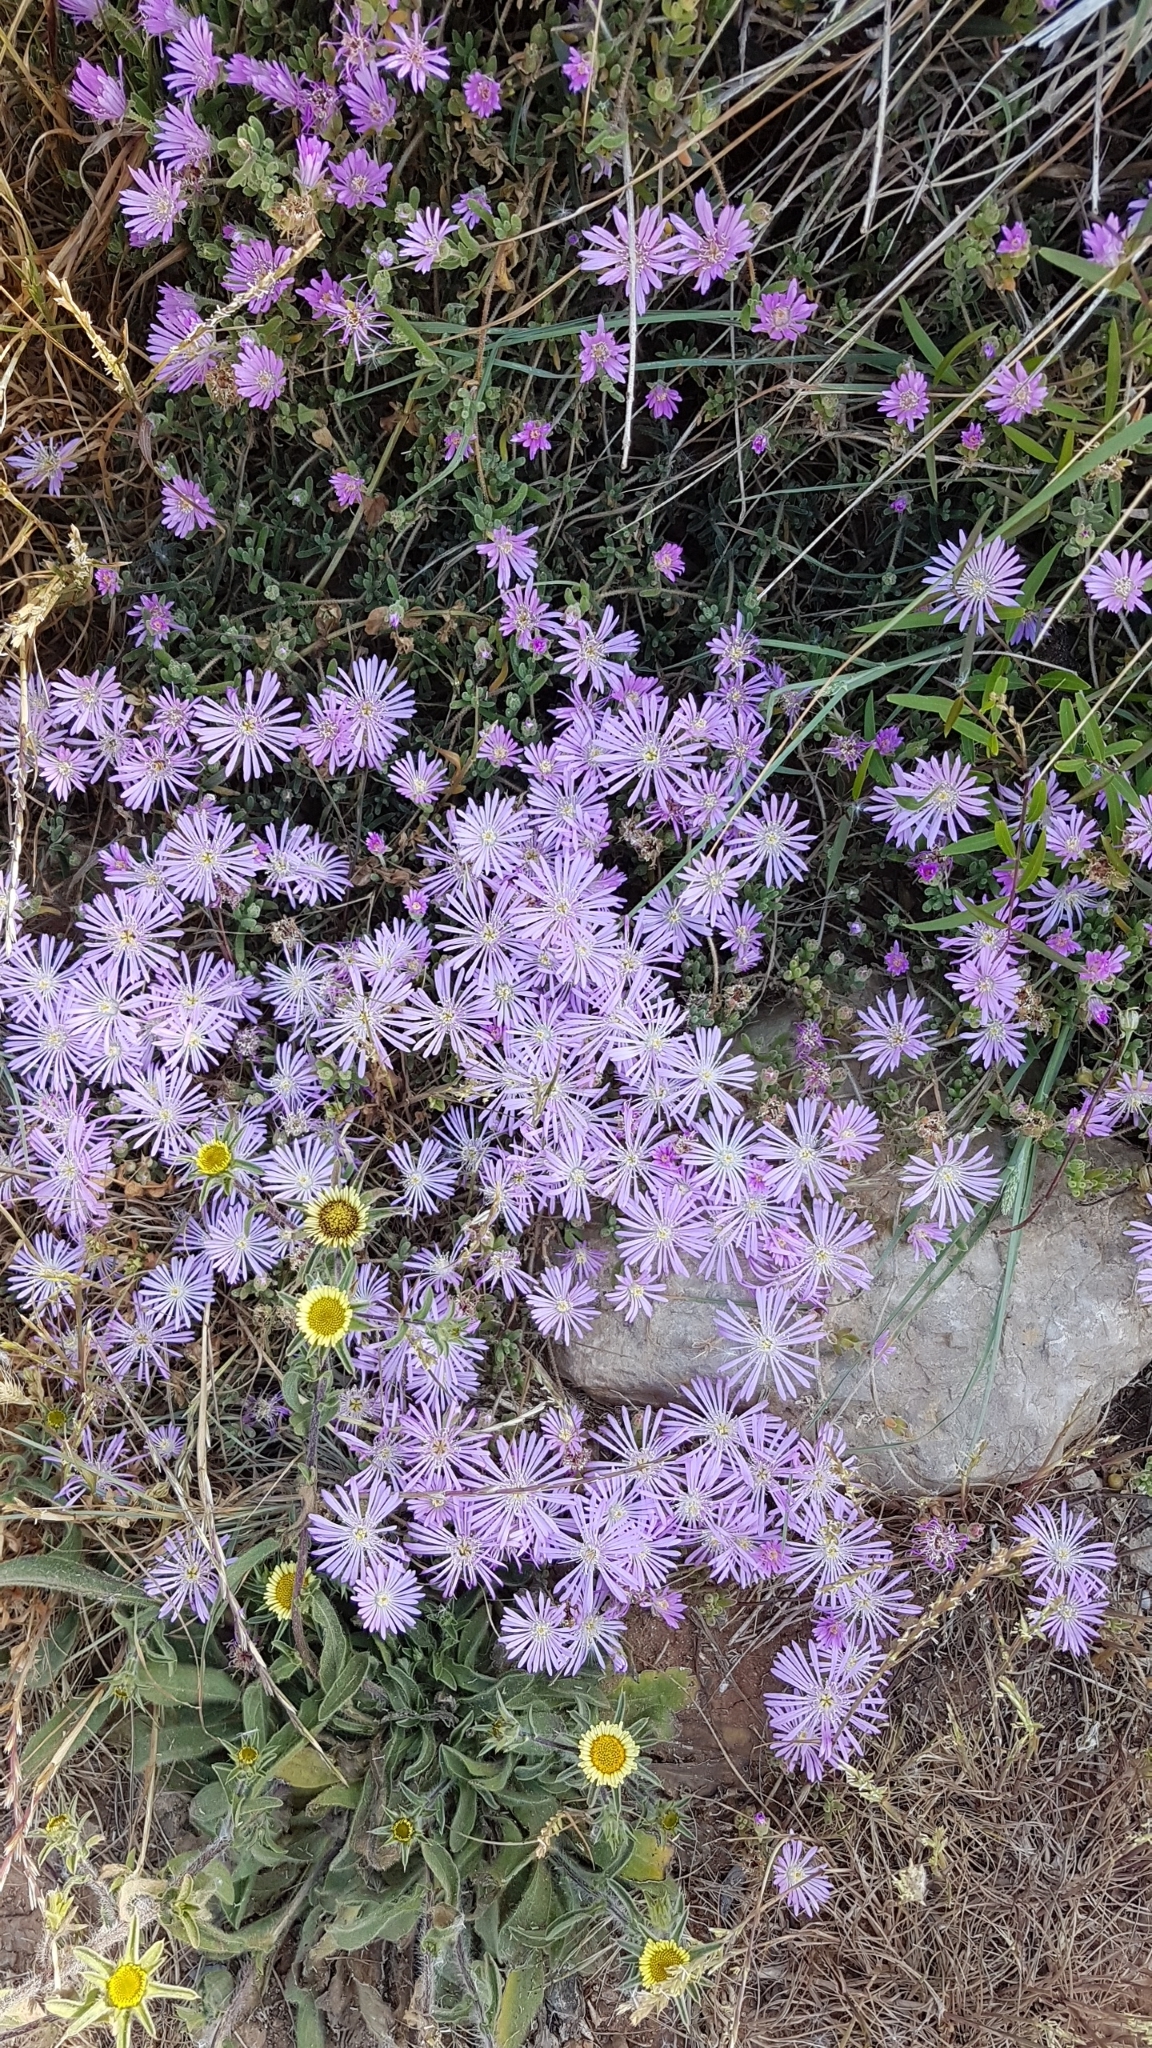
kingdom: Plantae
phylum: Tracheophyta
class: Magnoliopsida
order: Caryophyllales
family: Aizoaceae
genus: Drosanthemum
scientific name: Drosanthemum floribundum
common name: Pale dewplant
